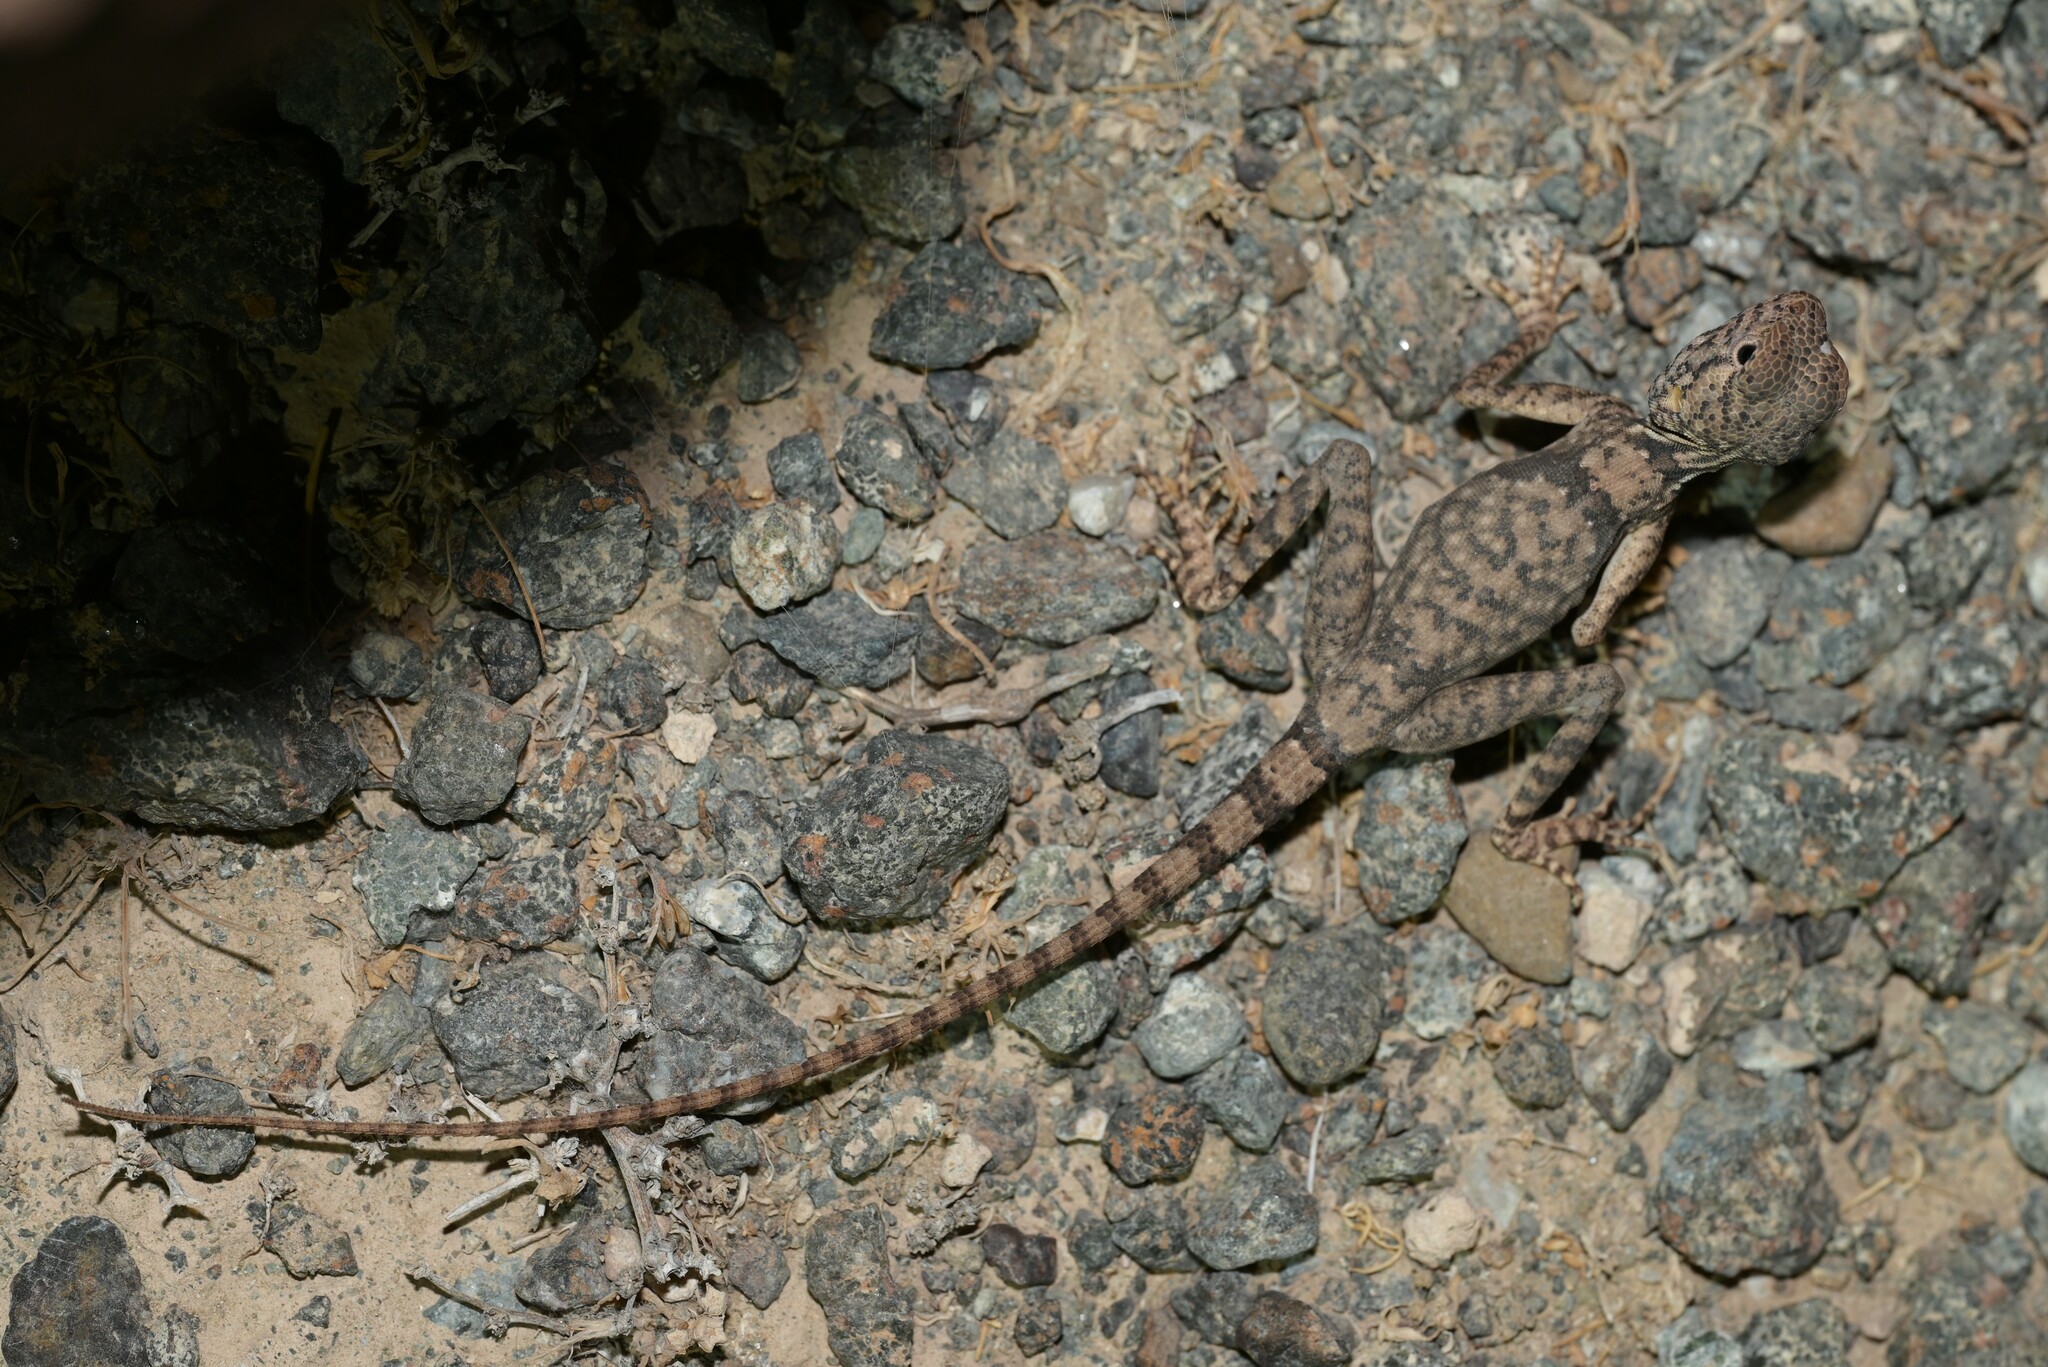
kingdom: Animalia
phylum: Chordata
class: Squamata
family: Agamidae
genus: Pseudotrapelus
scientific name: Pseudotrapelus jensvindumi
